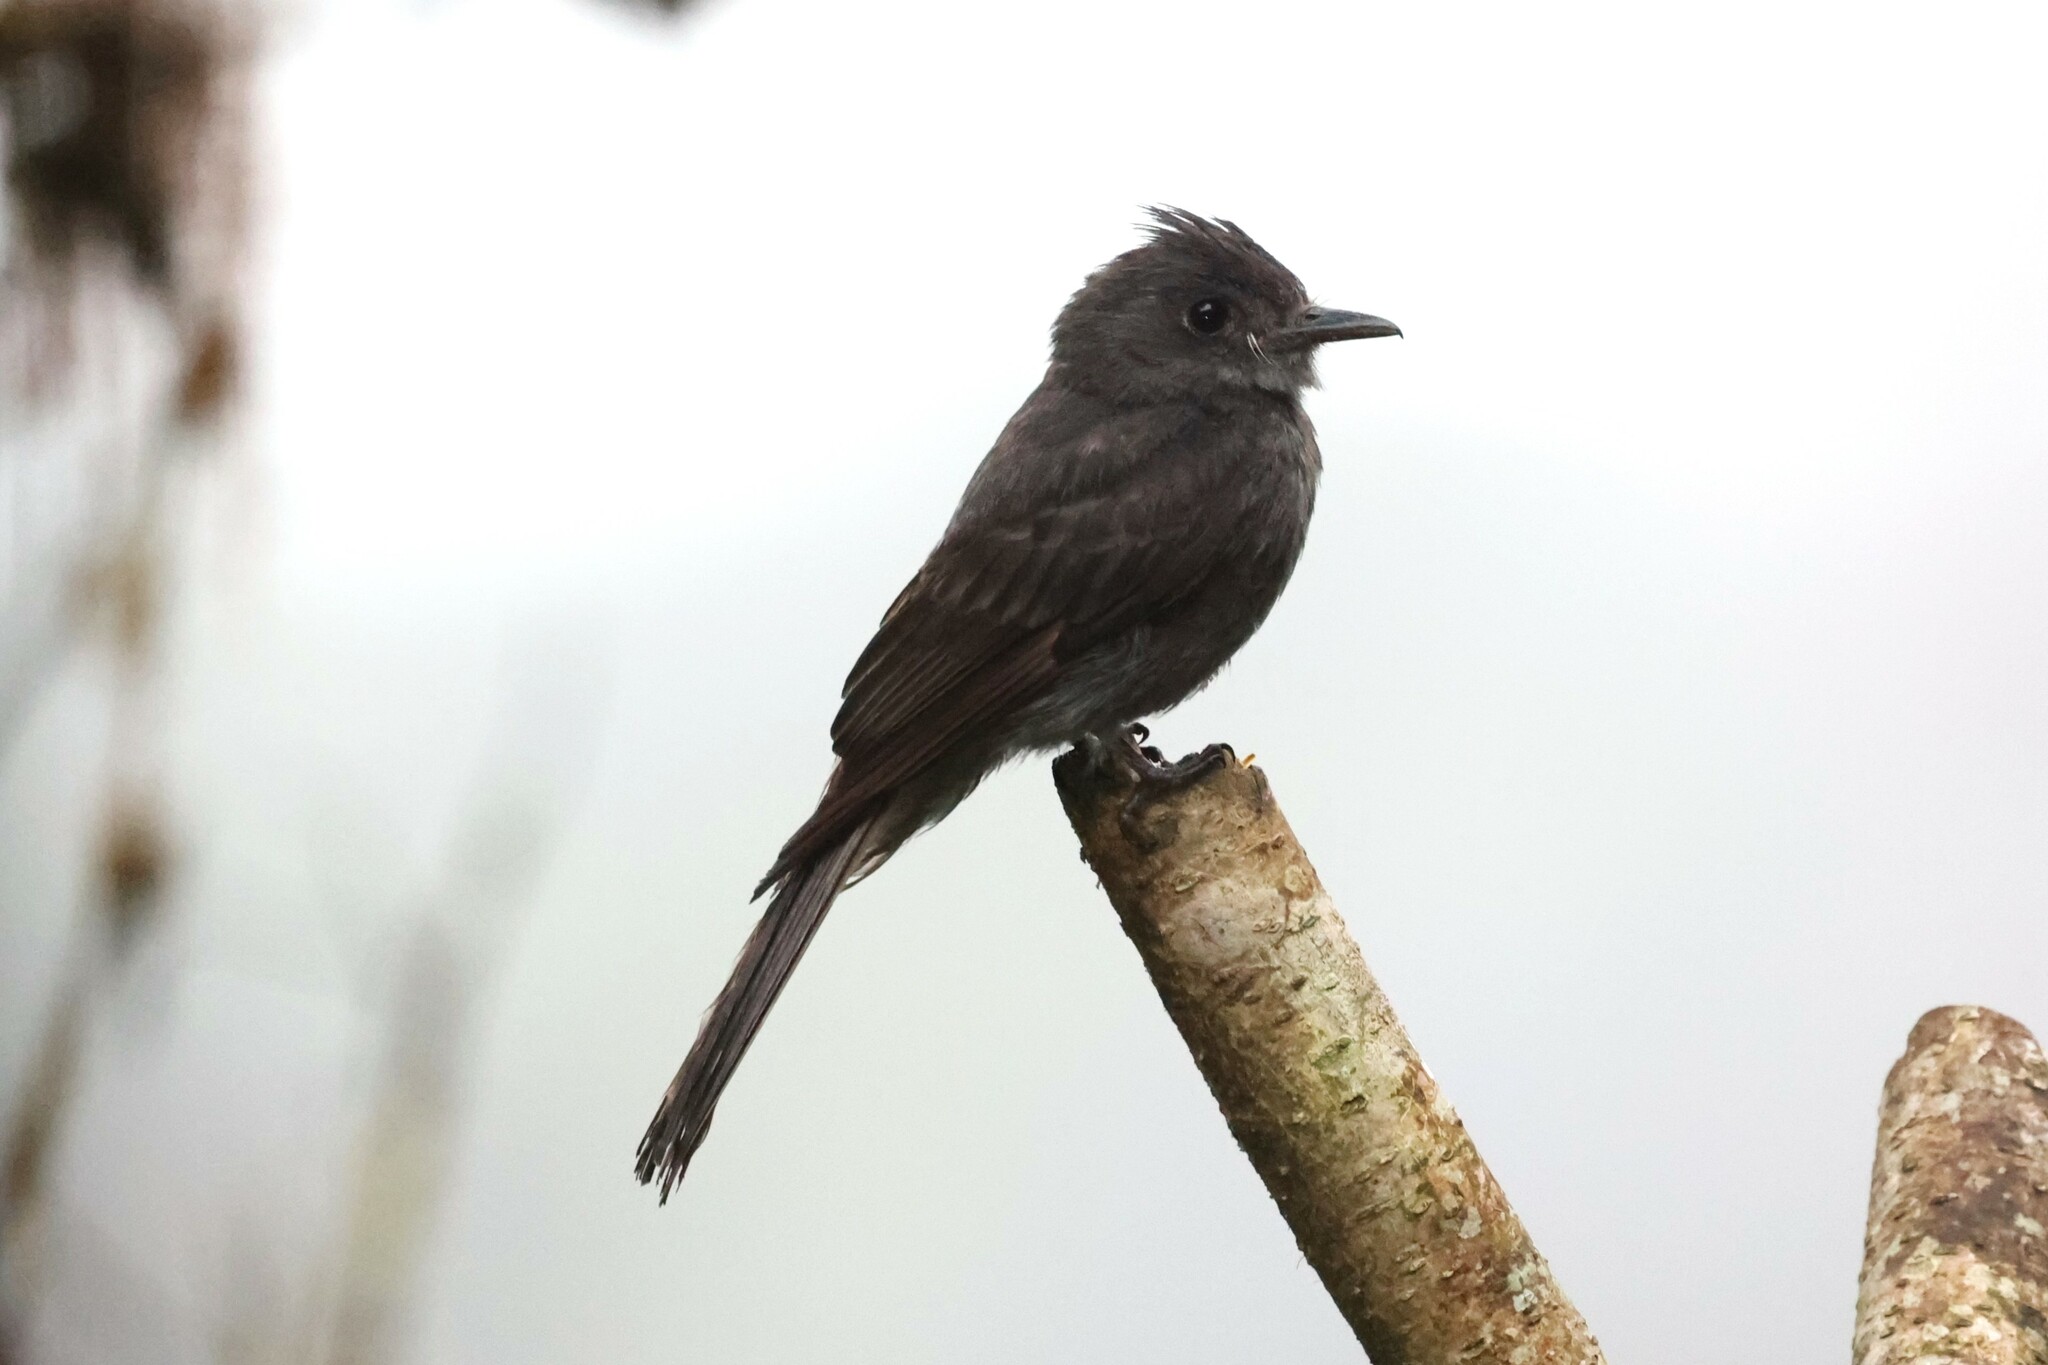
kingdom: Animalia
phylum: Chordata
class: Aves
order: Passeriformes
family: Tyrannidae
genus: Contopus
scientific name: Contopus fumigatus
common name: Smoke-colored pewee
